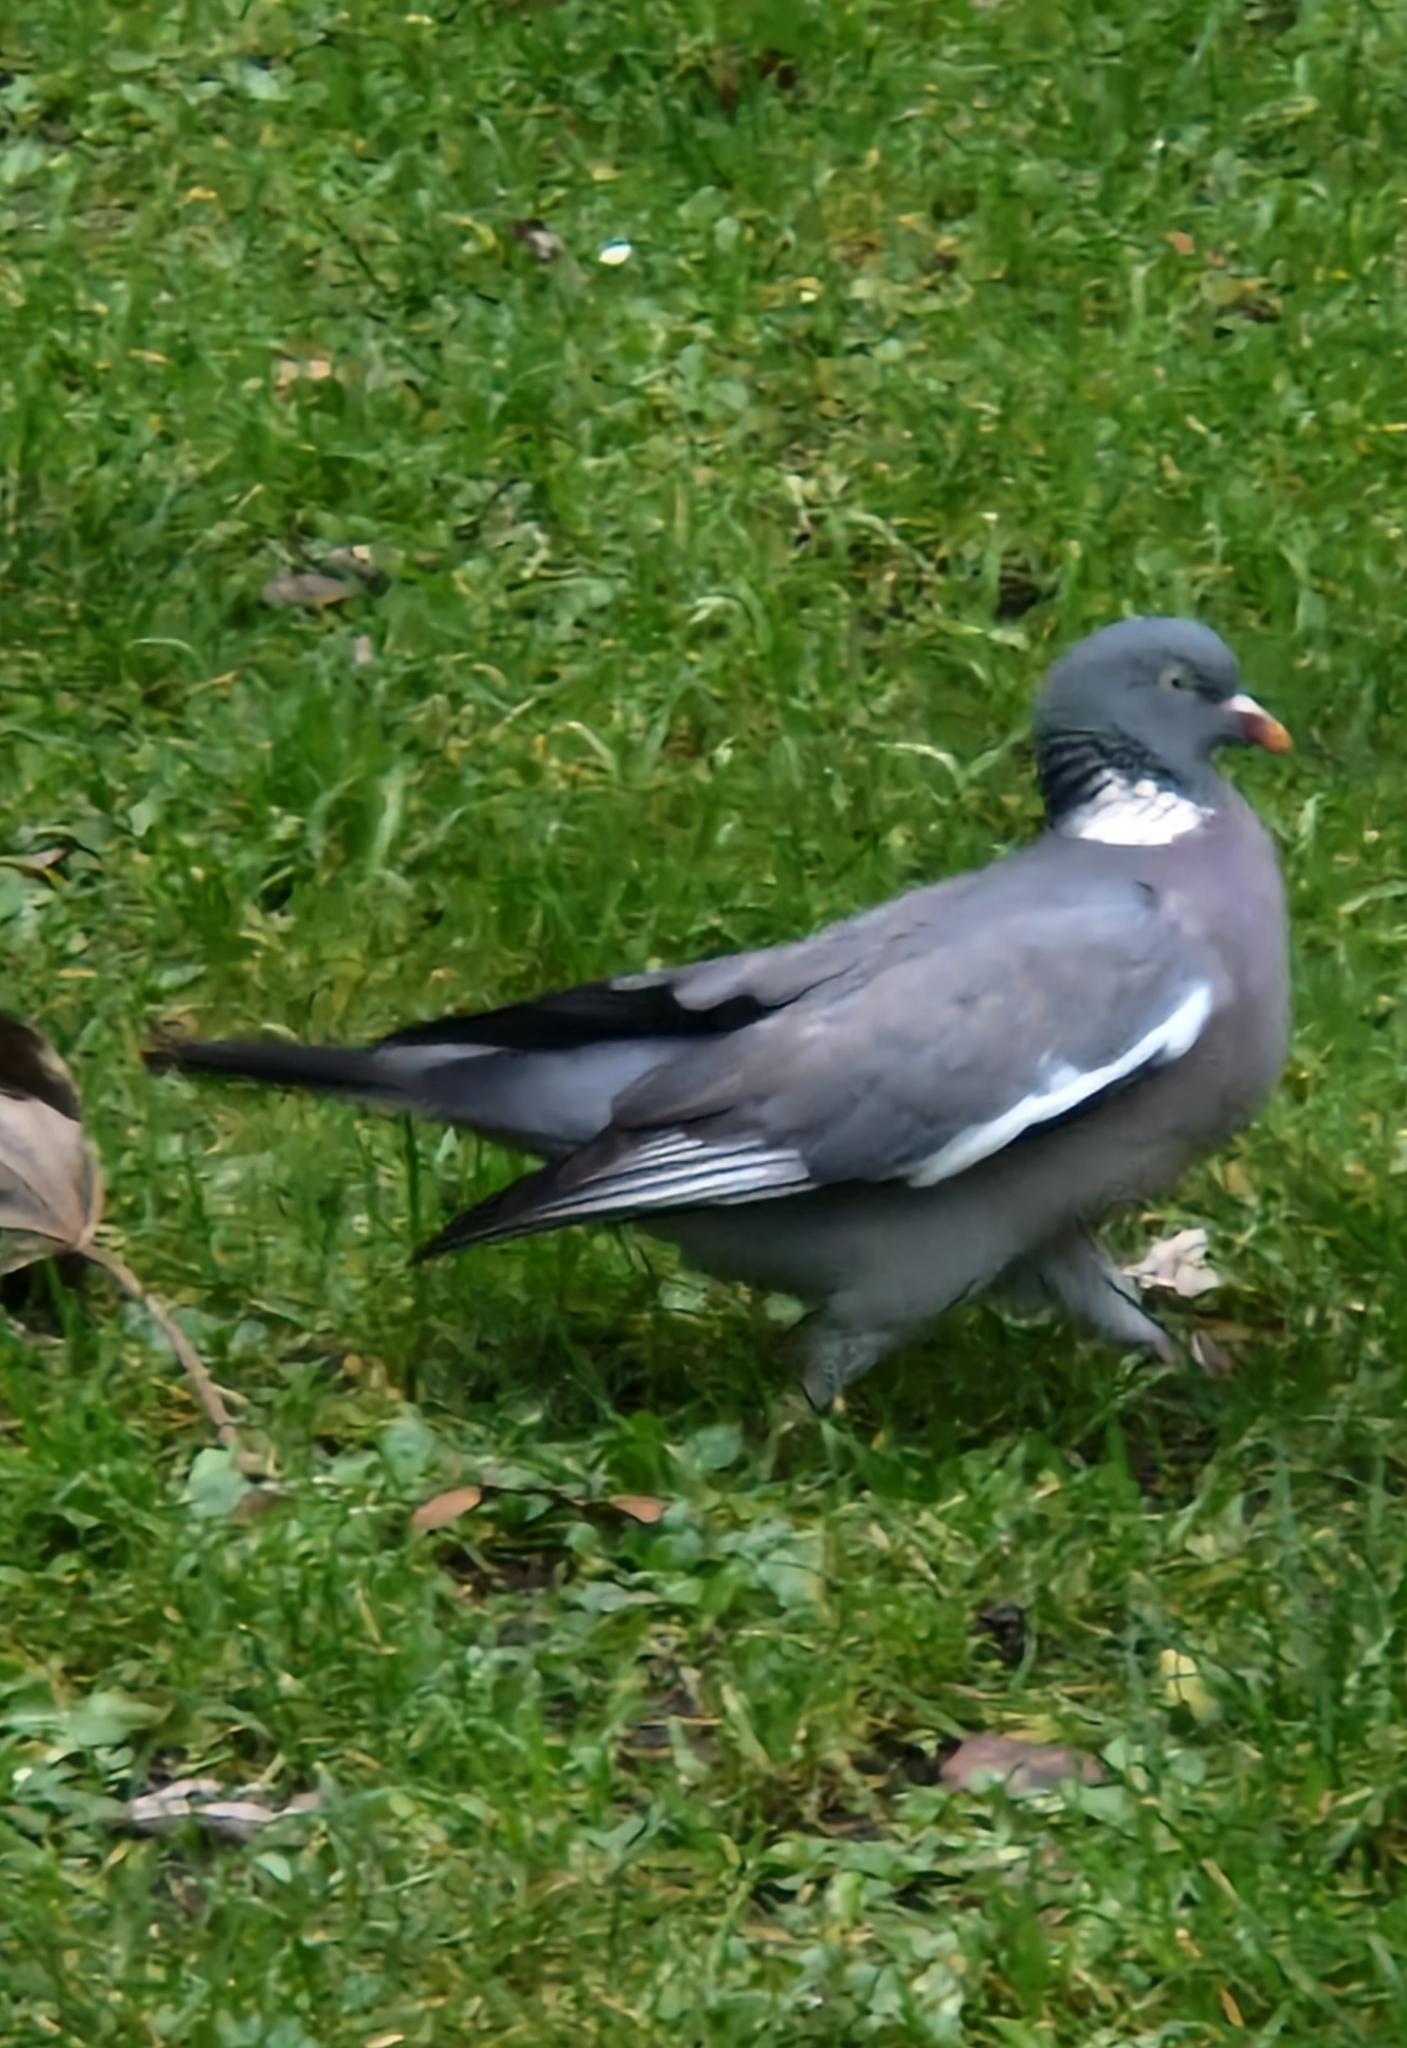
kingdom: Animalia
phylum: Chordata
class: Aves
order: Columbiformes
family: Columbidae
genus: Columba
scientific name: Columba palumbus
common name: Common wood pigeon
